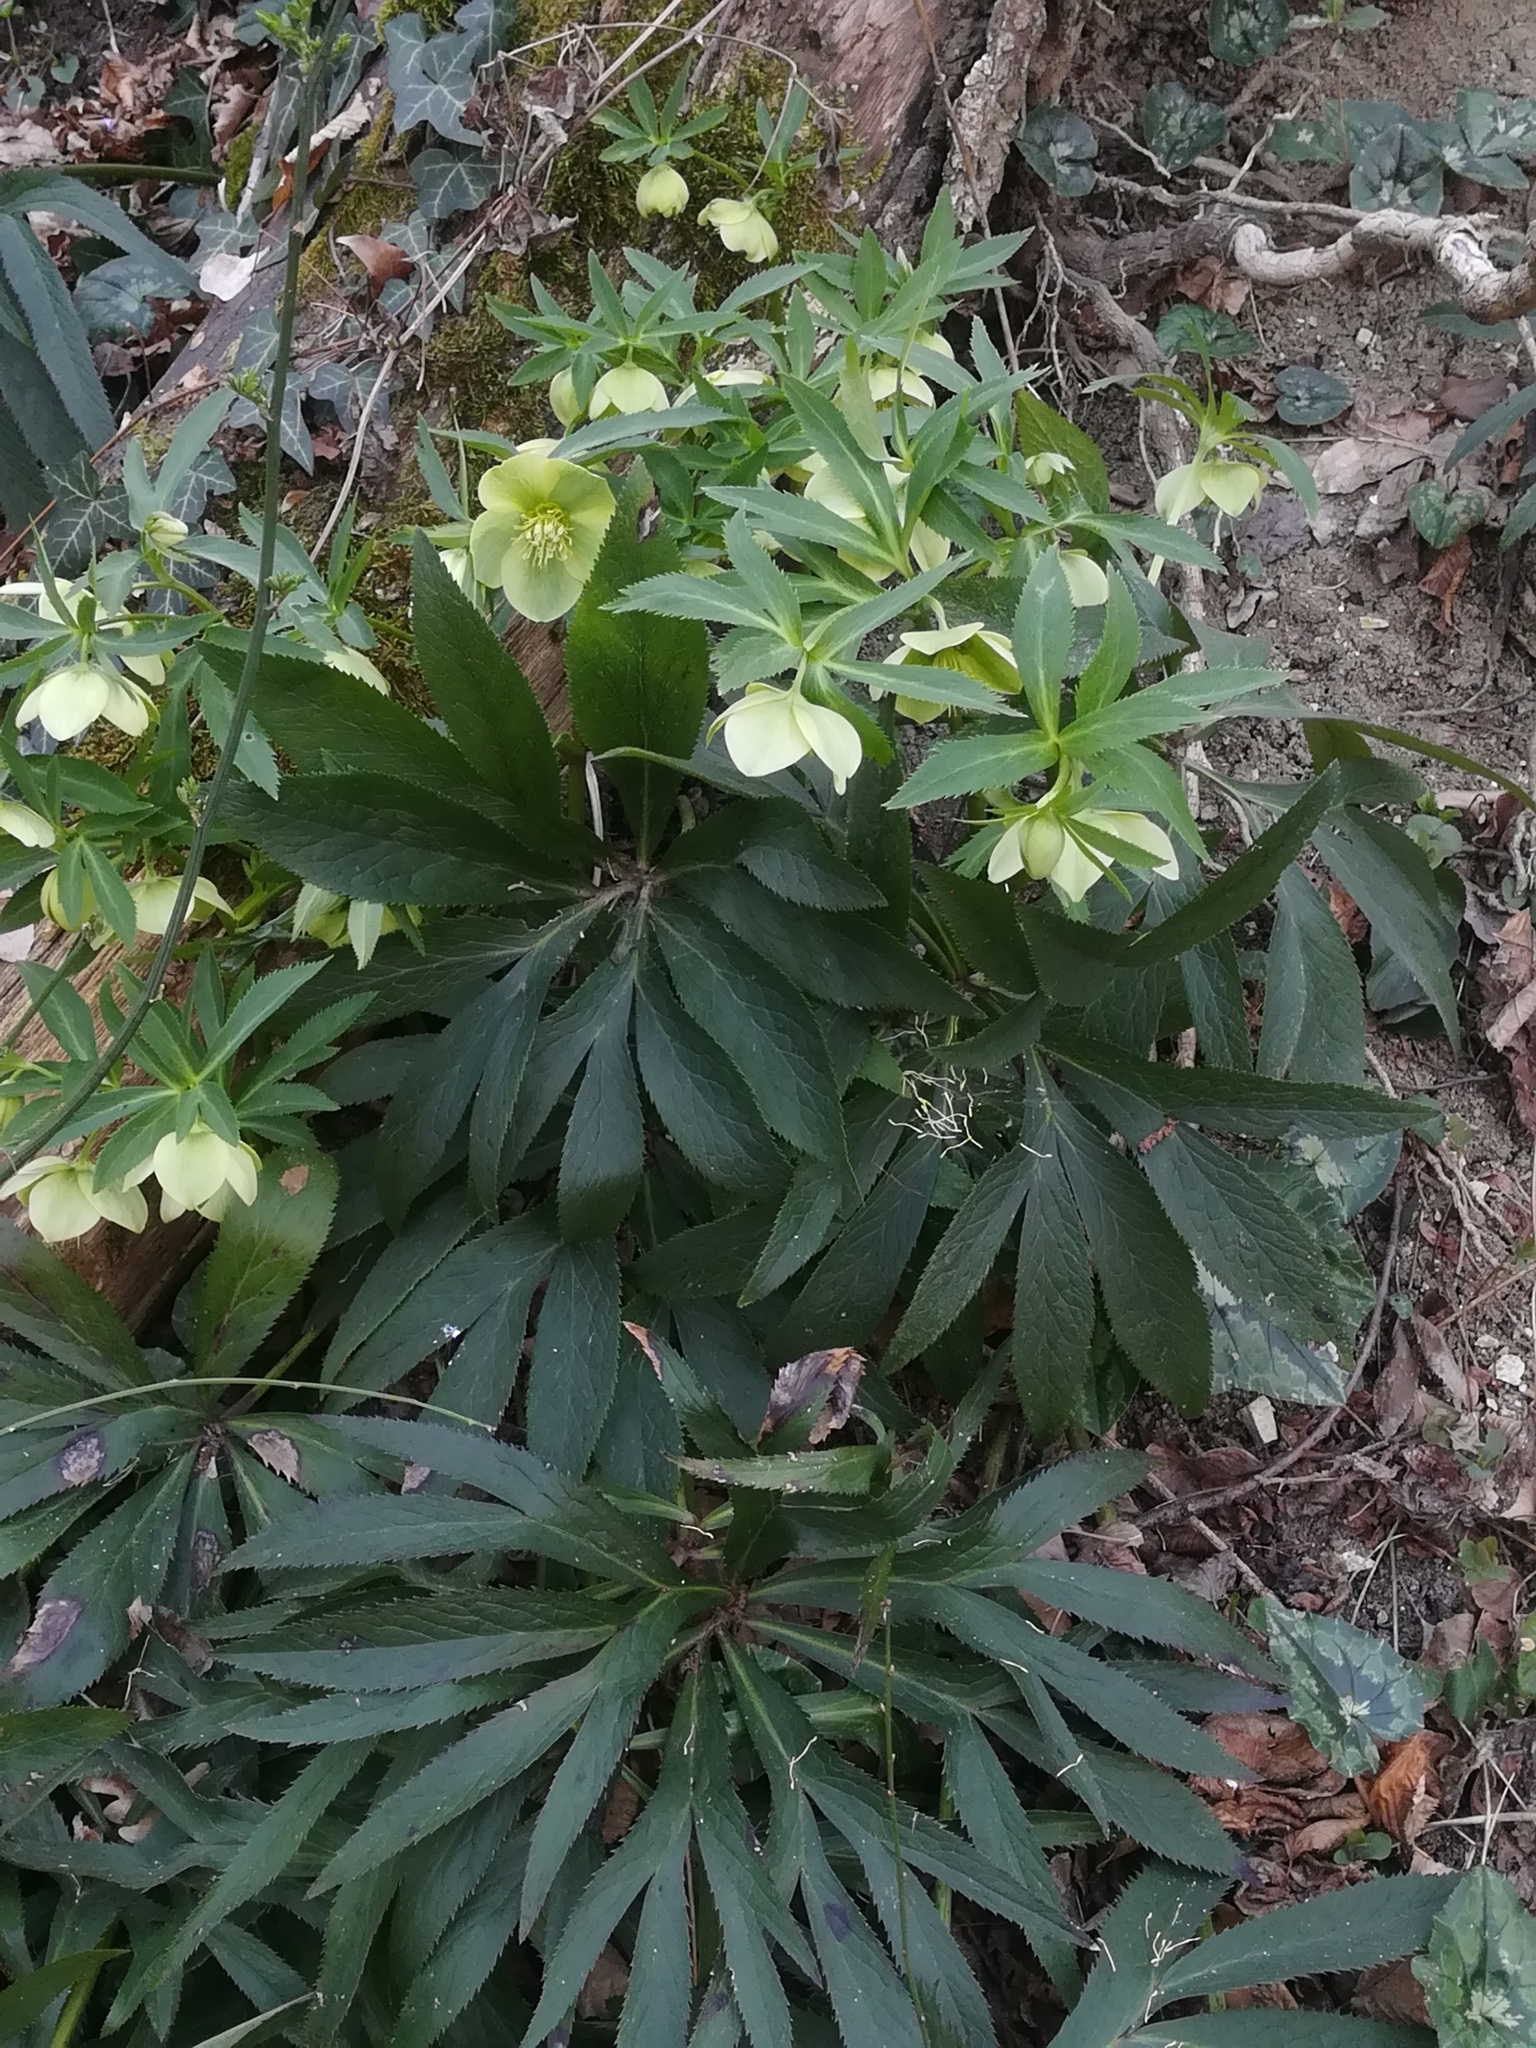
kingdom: Plantae
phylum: Tracheophyta
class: Magnoliopsida
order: Ranunculales
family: Ranunculaceae
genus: Helleborus
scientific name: Helleborus viridis
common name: Green hellebore
